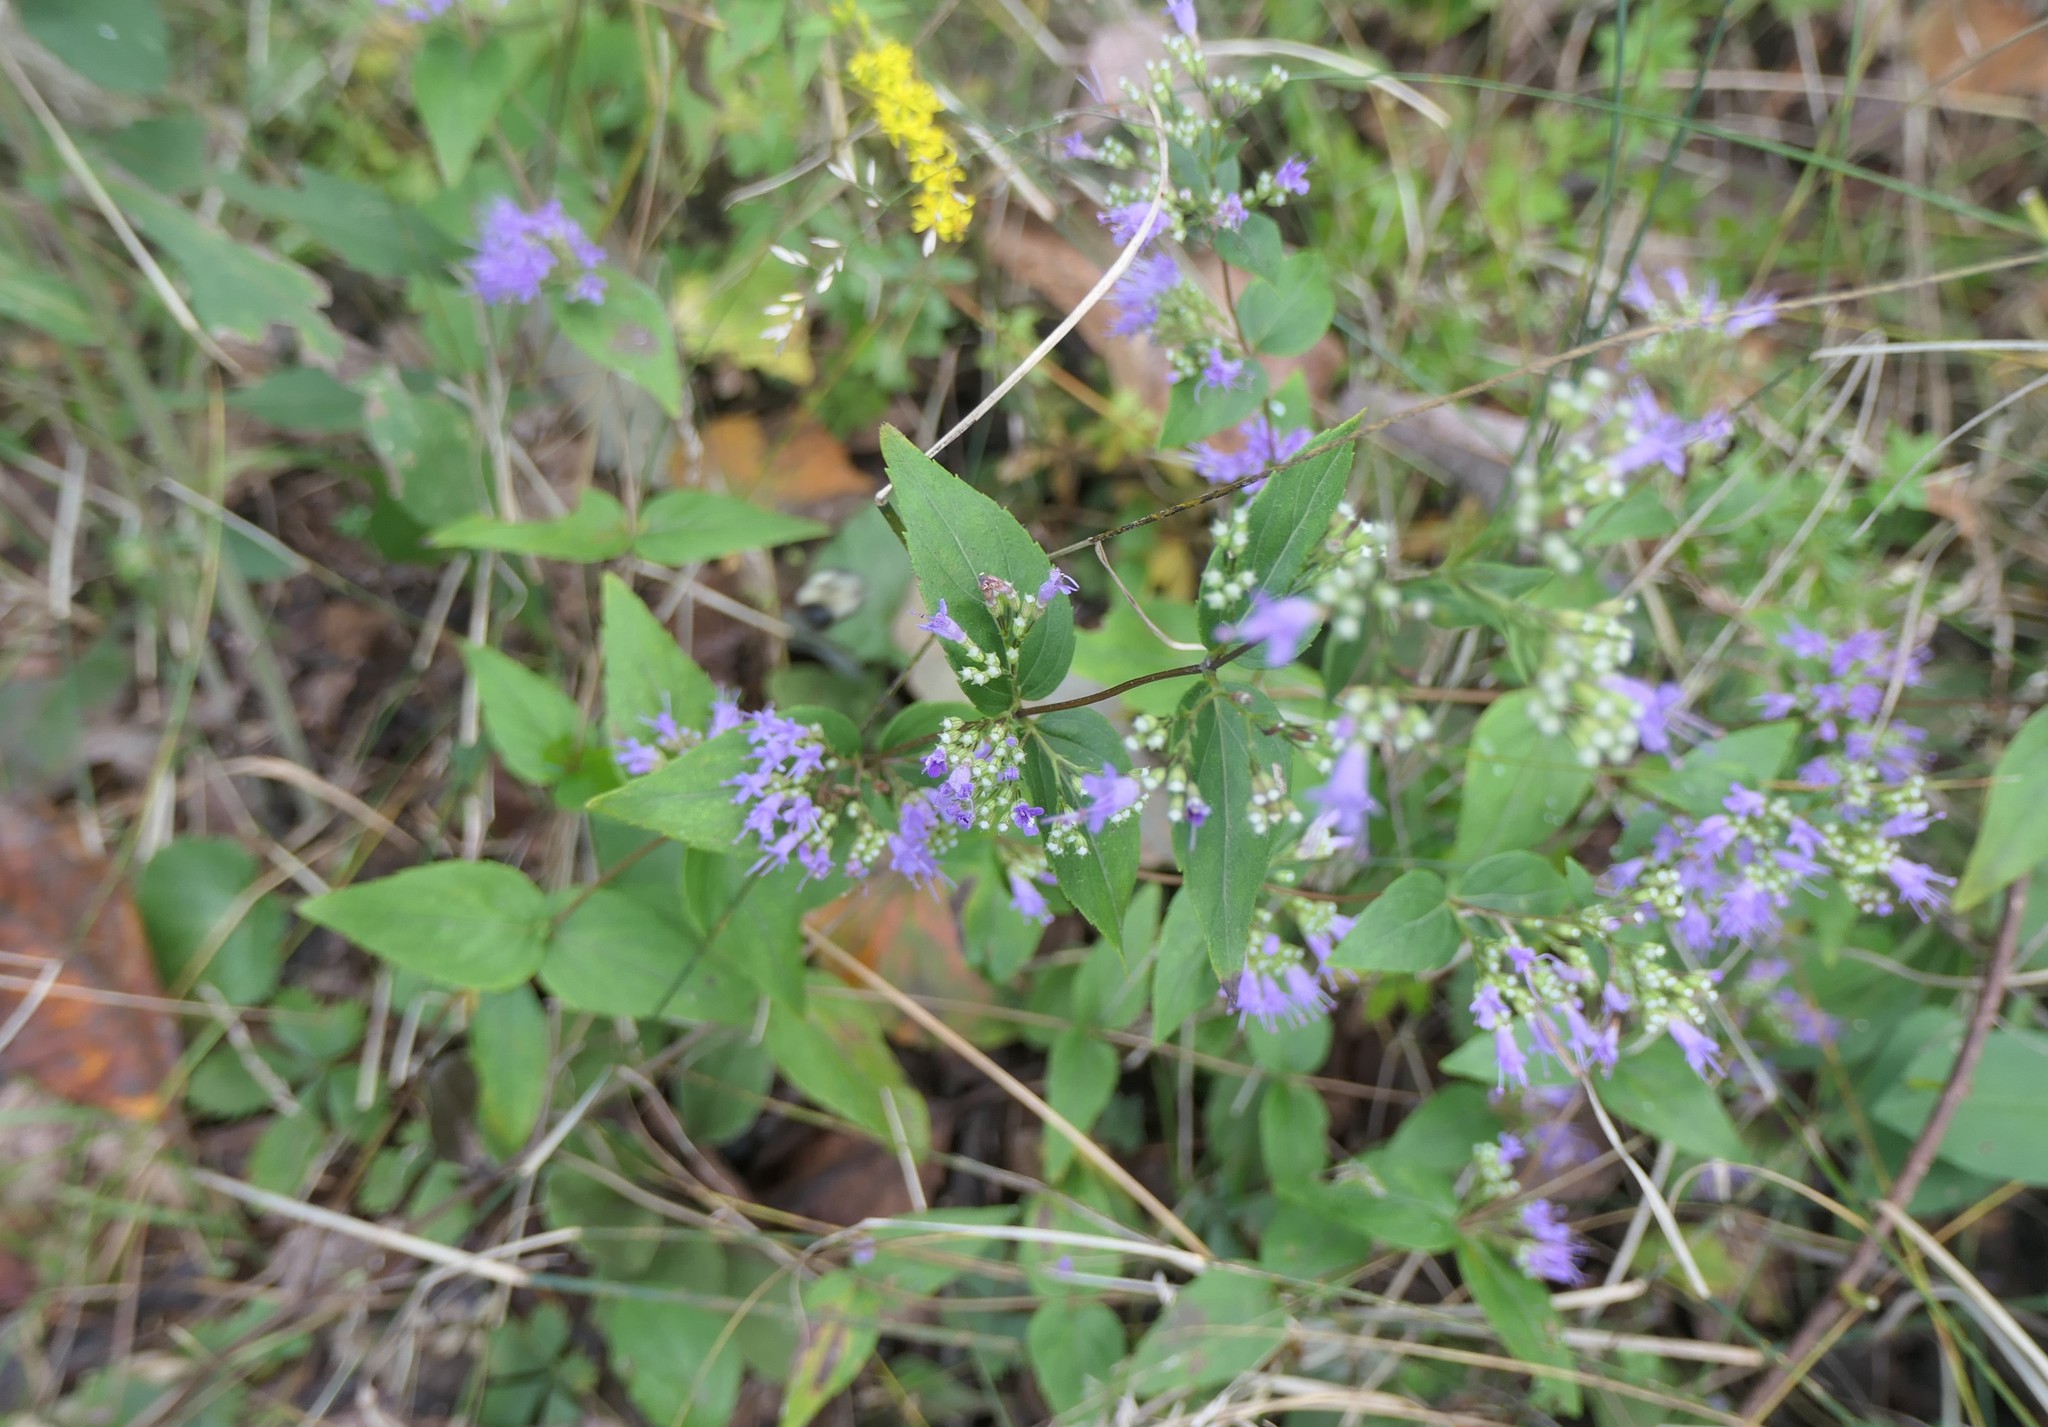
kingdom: Plantae
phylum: Tracheophyta
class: Magnoliopsida
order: Lamiales
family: Lamiaceae
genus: Cunila
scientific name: Cunila origanoides
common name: American dittany
